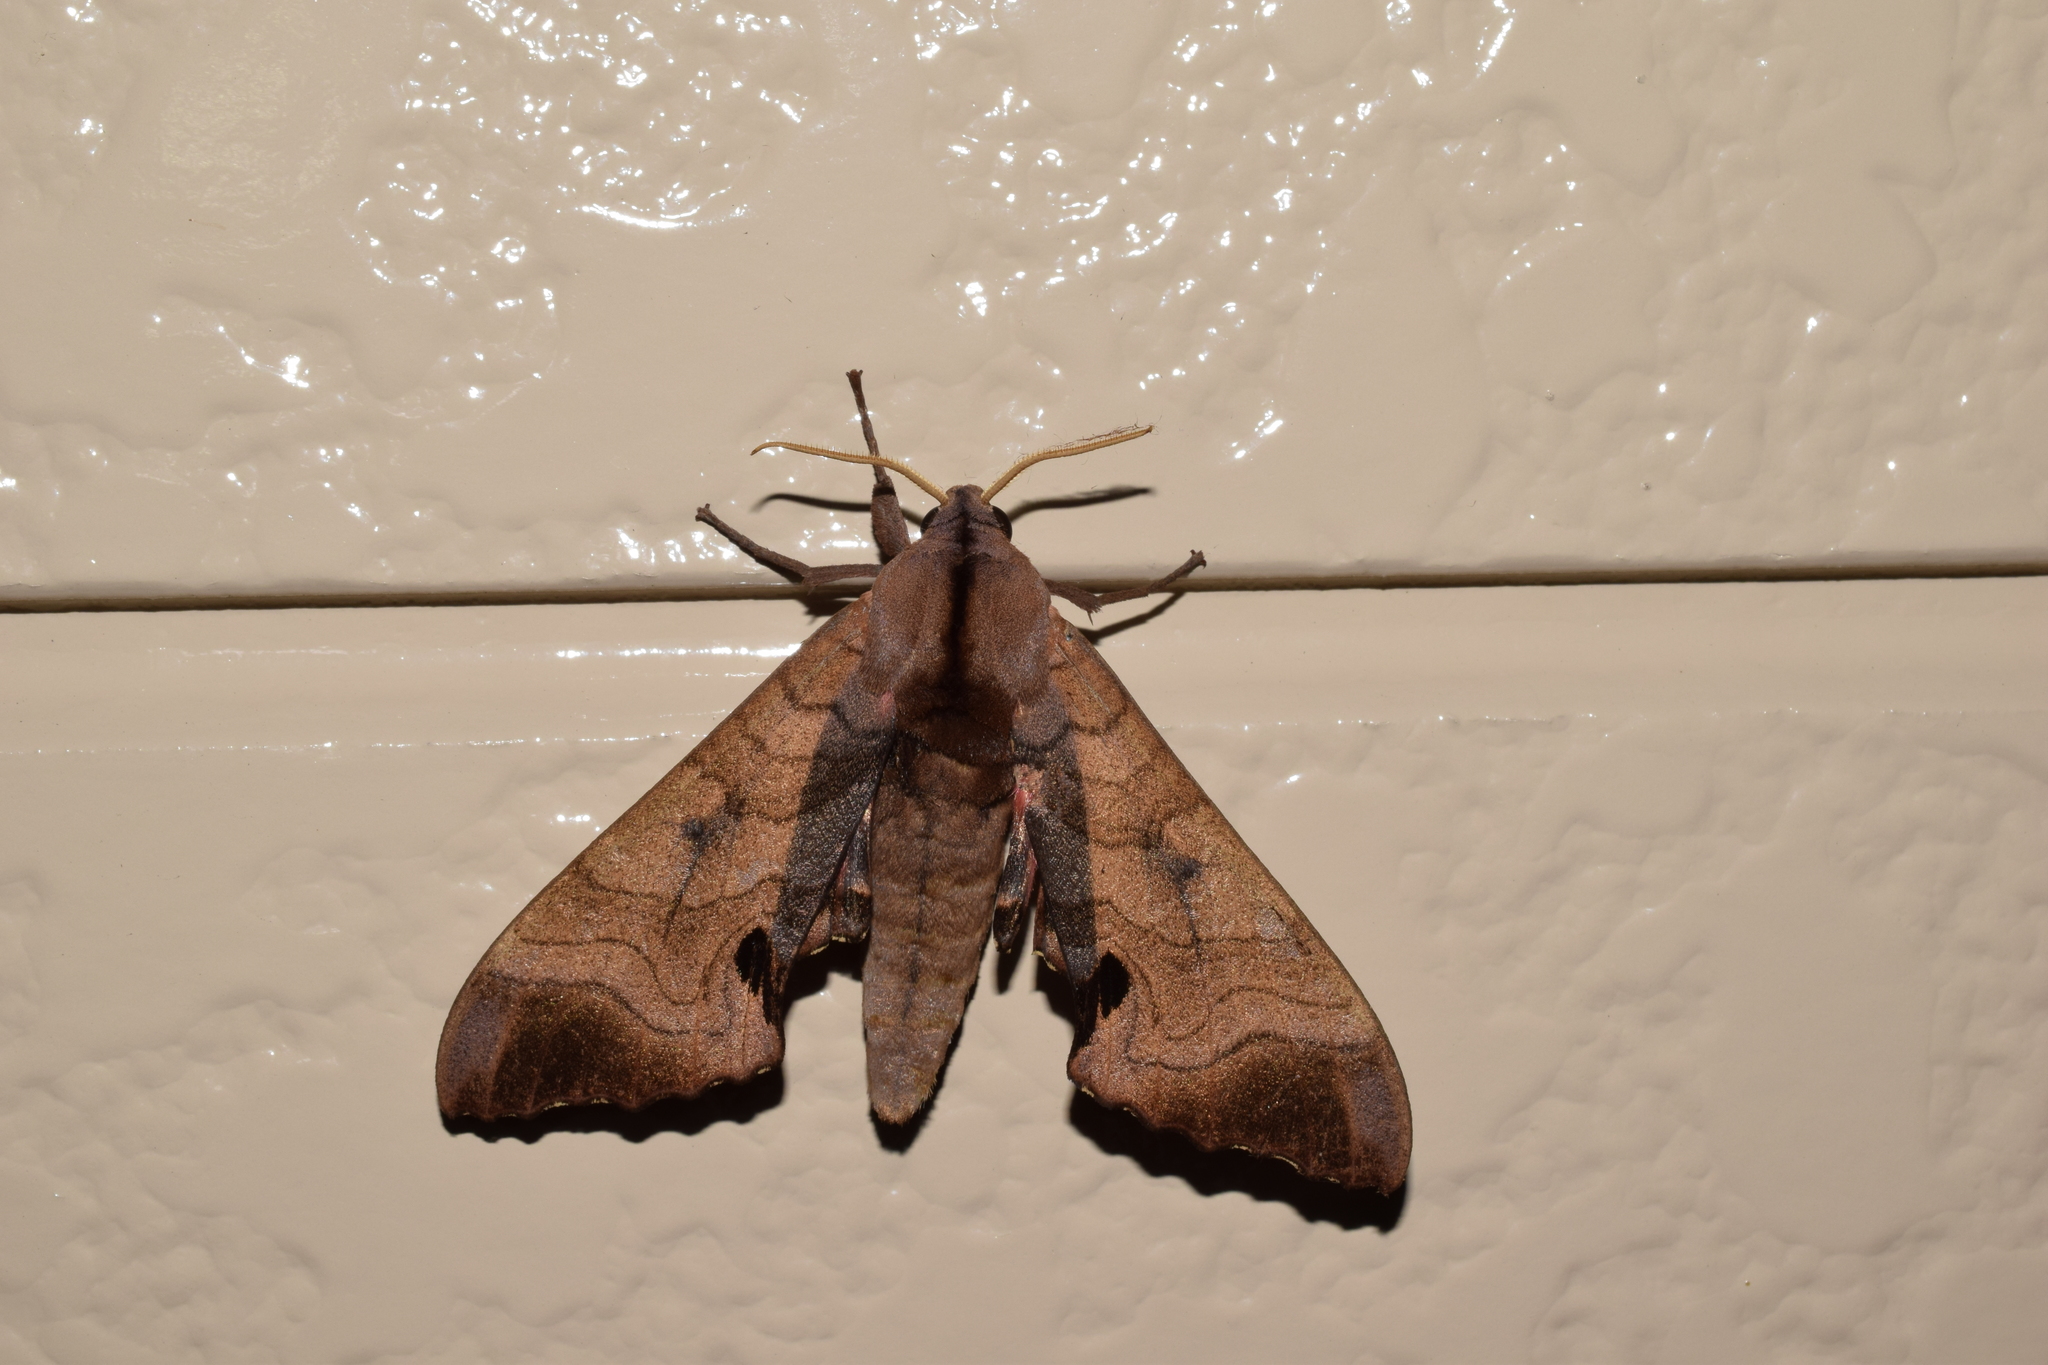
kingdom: Animalia
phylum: Arthropoda
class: Insecta
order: Lepidoptera
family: Sphingidae
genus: Marumba
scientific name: Marumba gaschkewitschii
